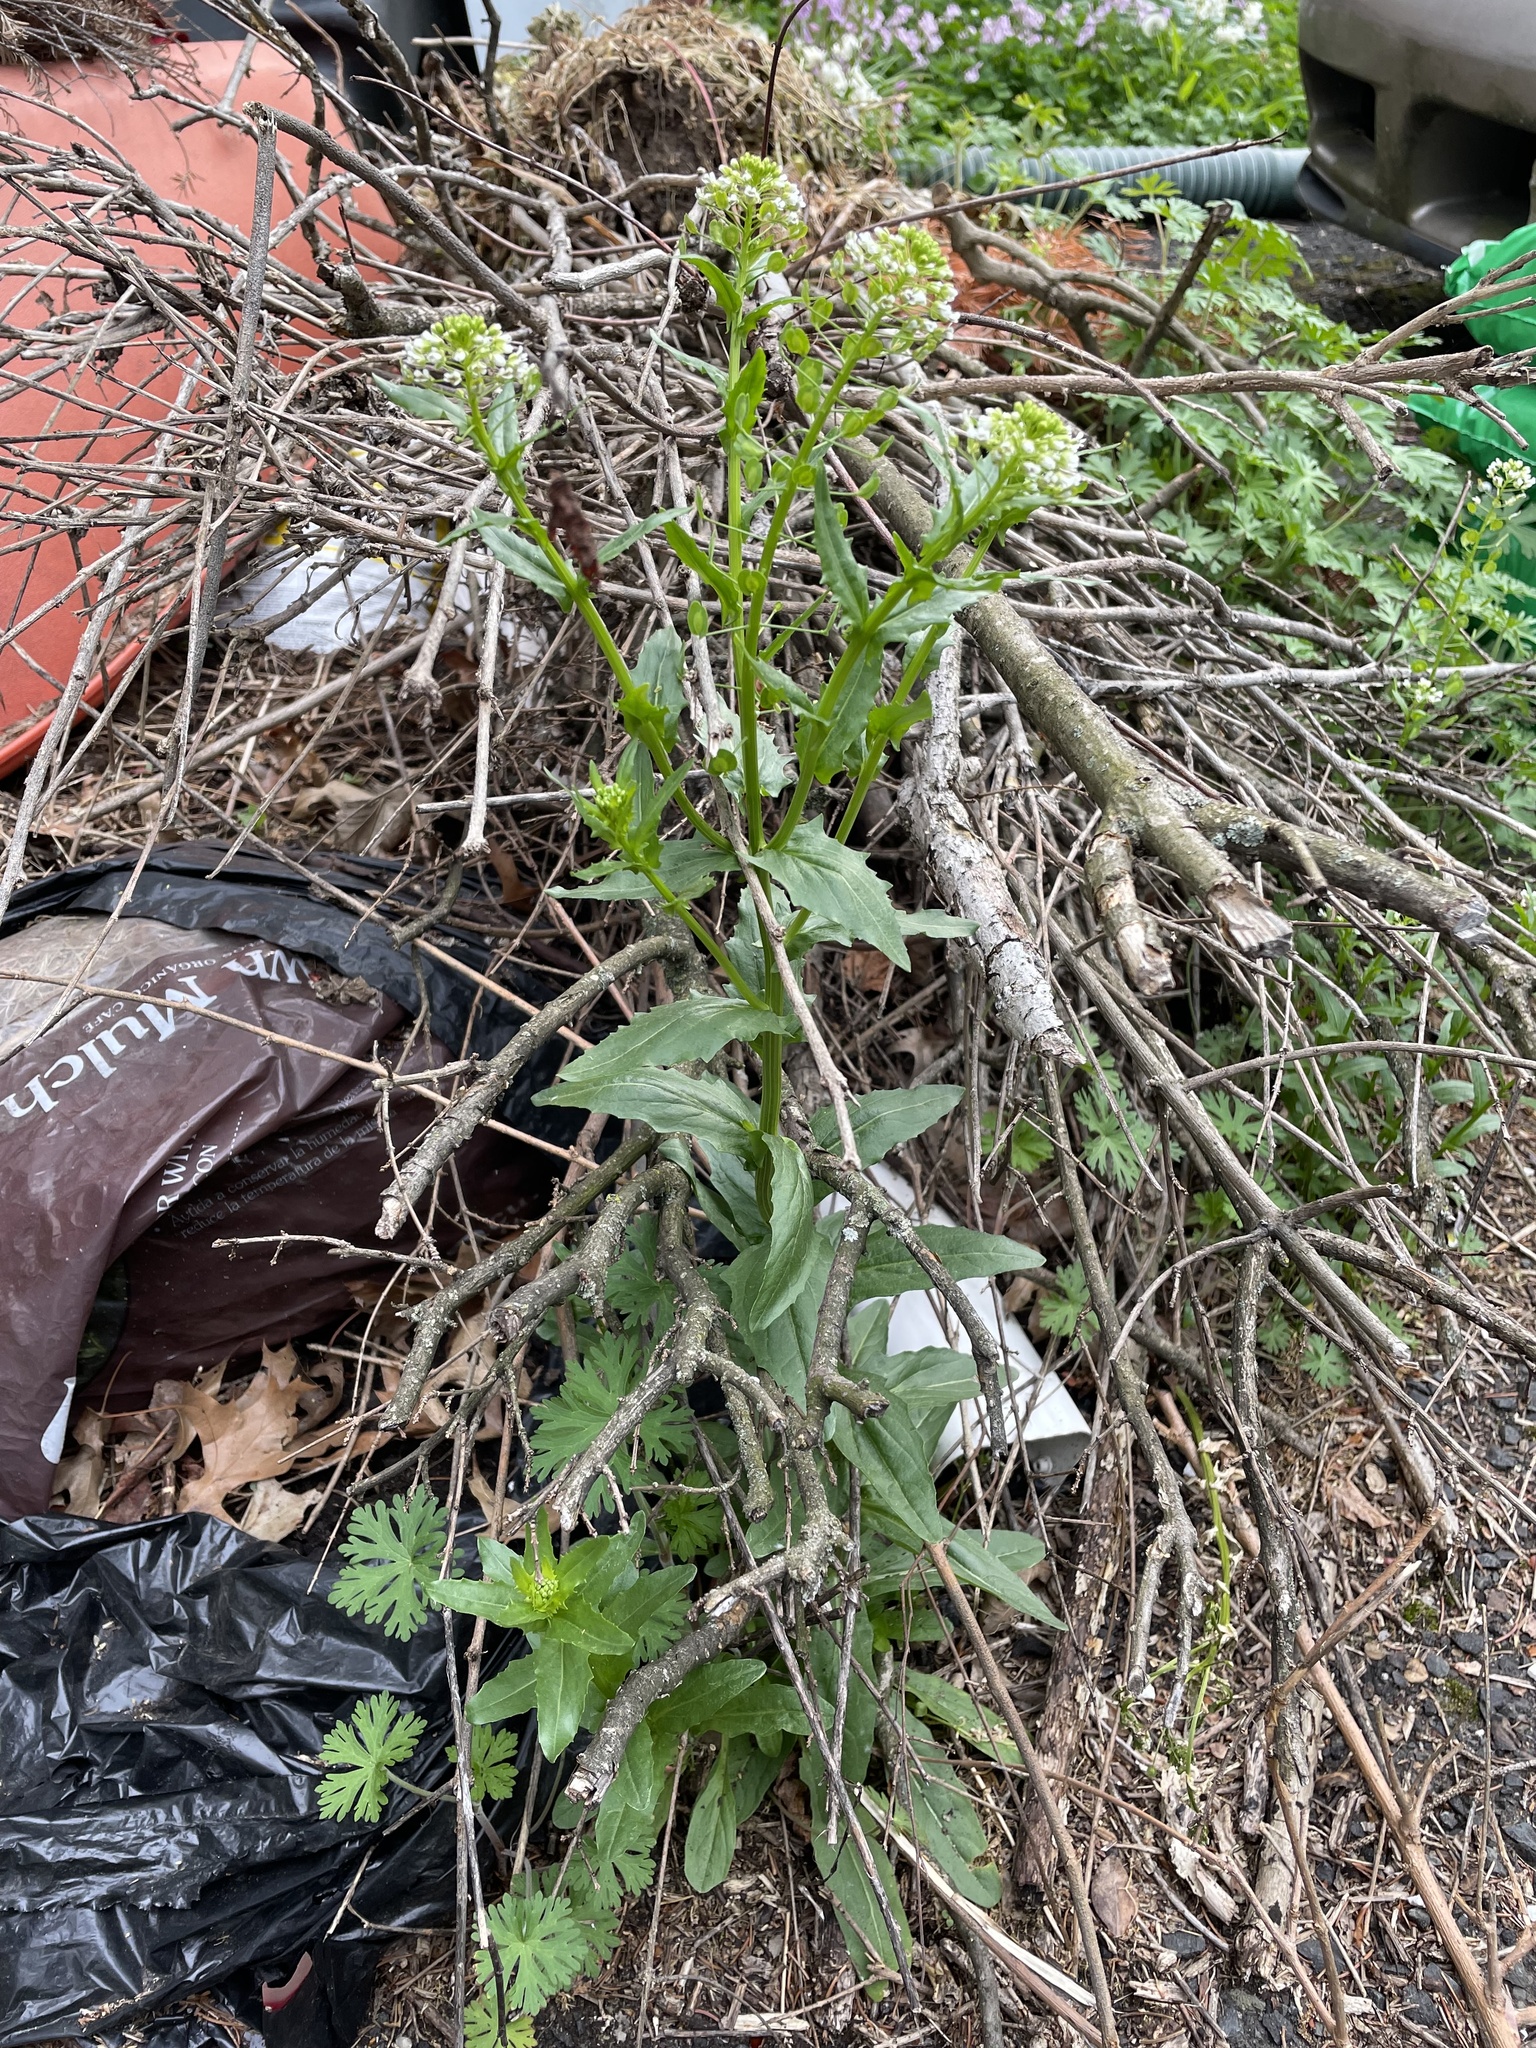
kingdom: Plantae
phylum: Tracheophyta
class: Magnoliopsida
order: Brassicales
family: Brassicaceae
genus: Thlaspi
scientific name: Thlaspi arvense
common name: Field pennycress
